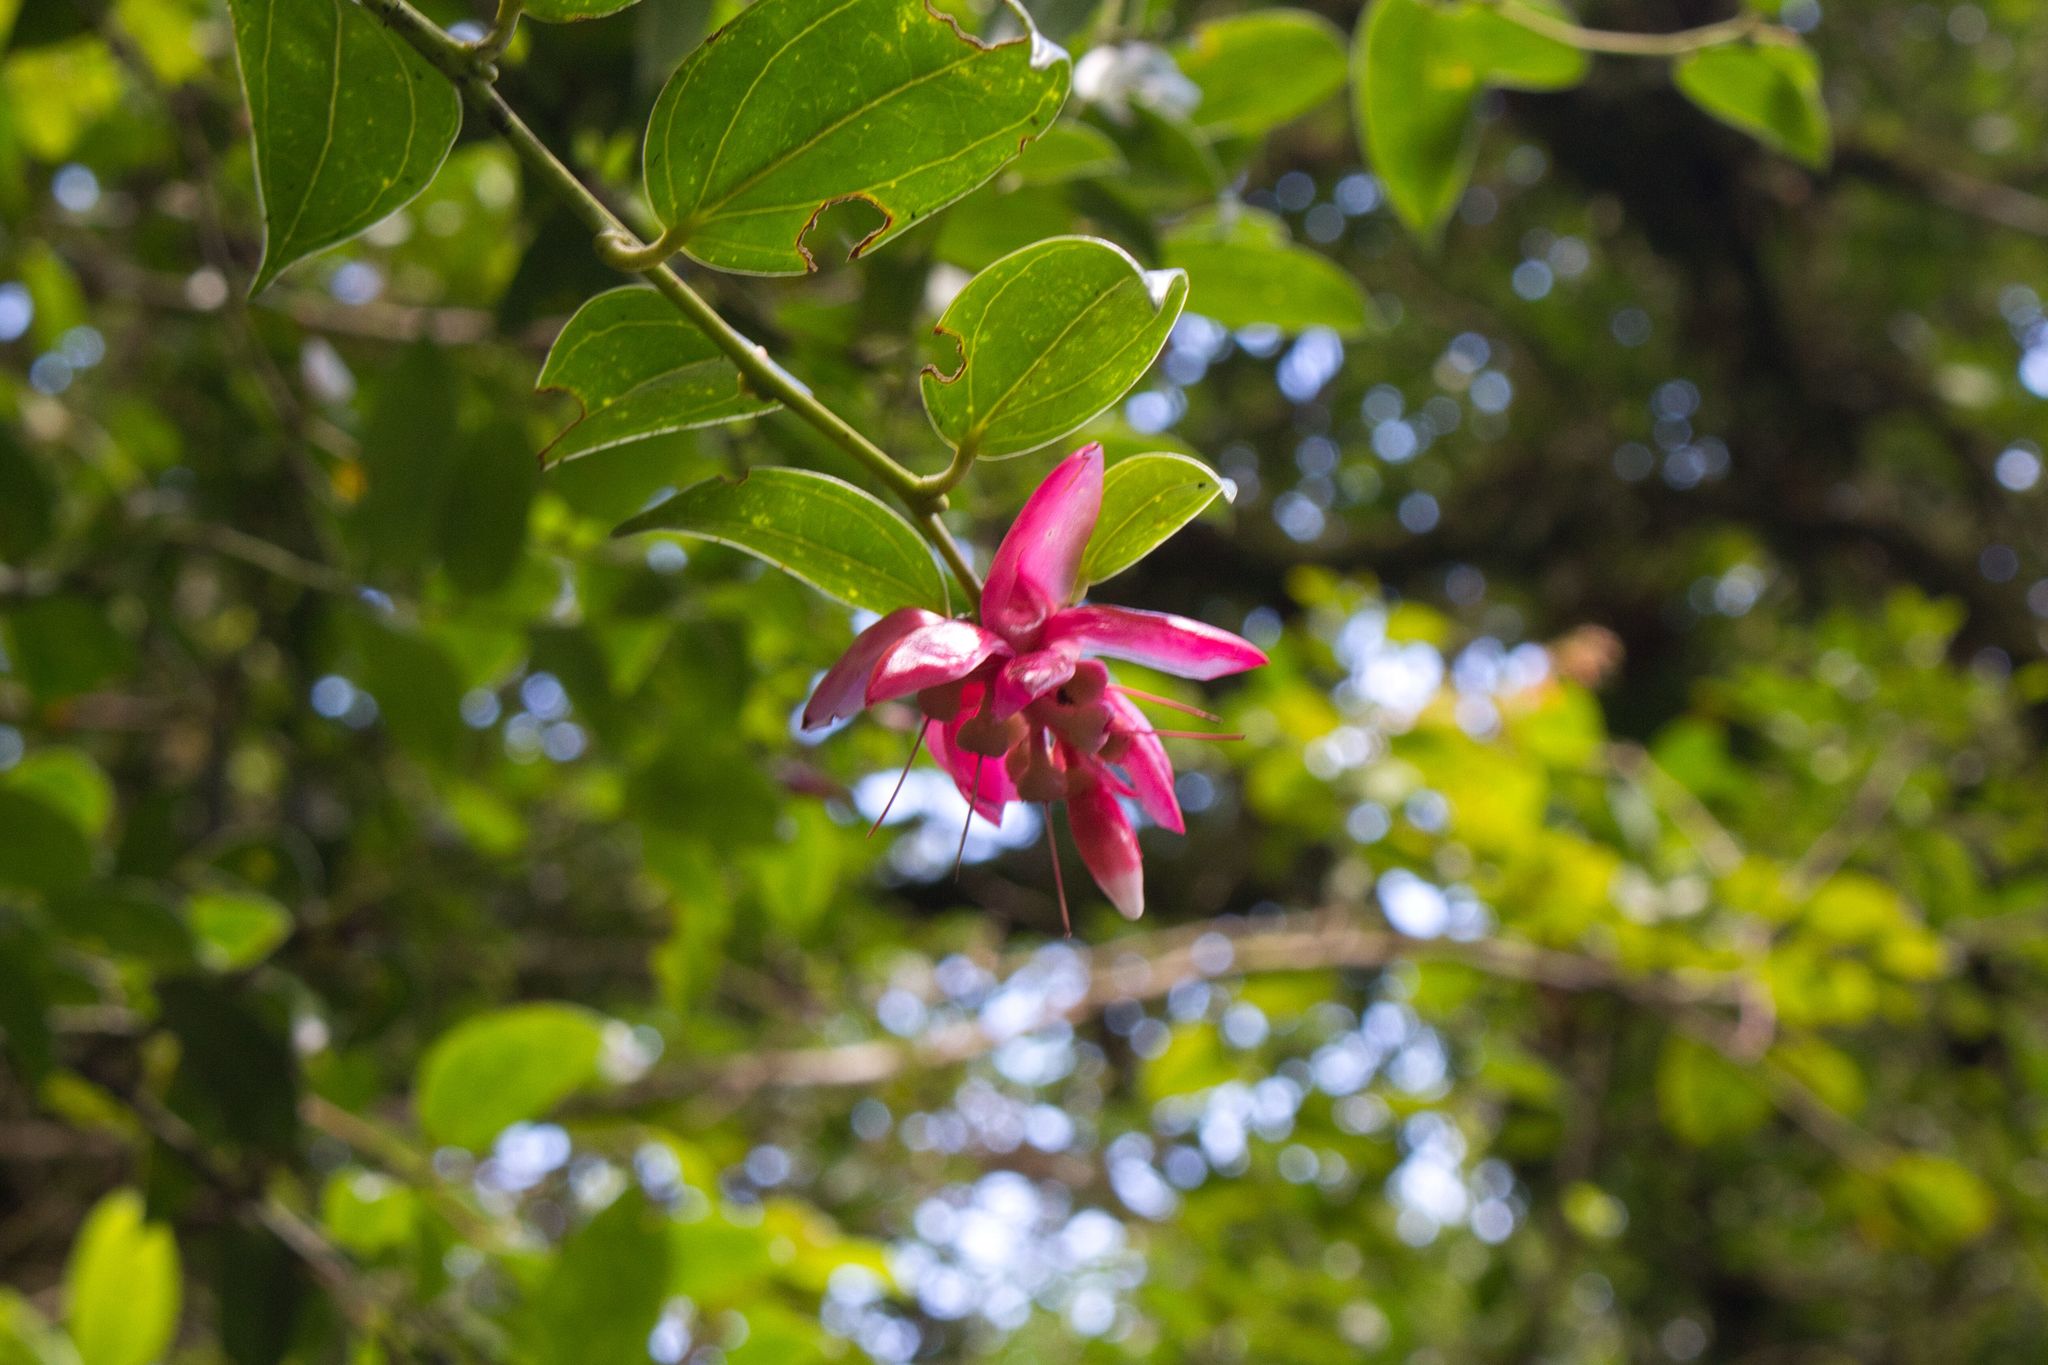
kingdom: Plantae
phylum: Tracheophyta
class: Magnoliopsida
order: Ericales
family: Ericaceae
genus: Cavendishia
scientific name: Cavendishia bracteata
